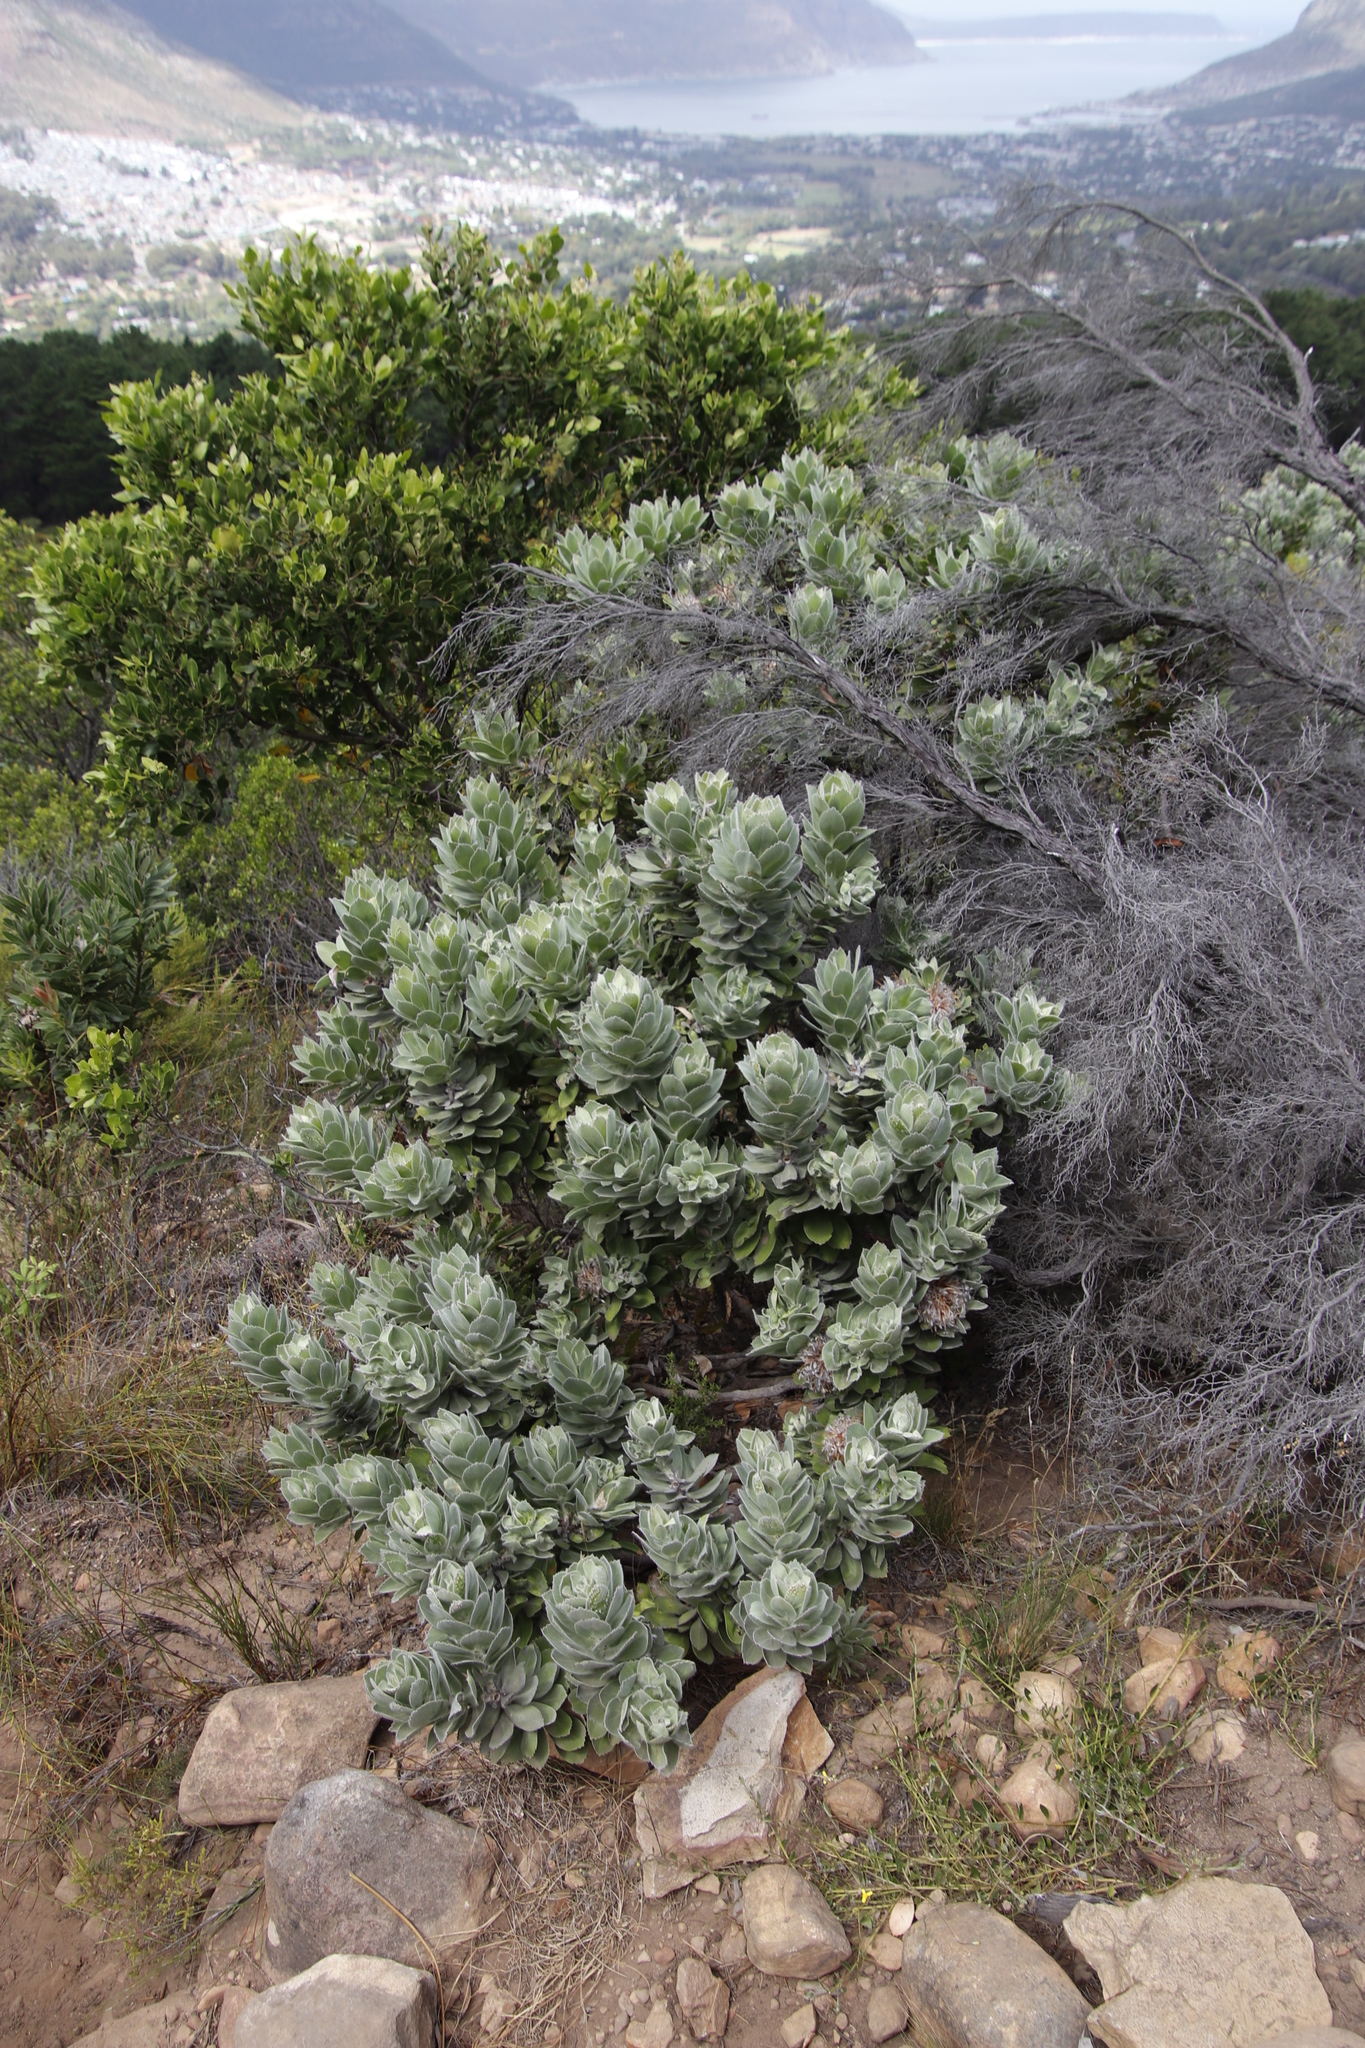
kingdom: Plantae
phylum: Tracheophyta
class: Magnoliopsida
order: Proteales
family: Proteaceae
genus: Leucospermum
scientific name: Leucospermum conocarpodendron
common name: Tree pincushion
